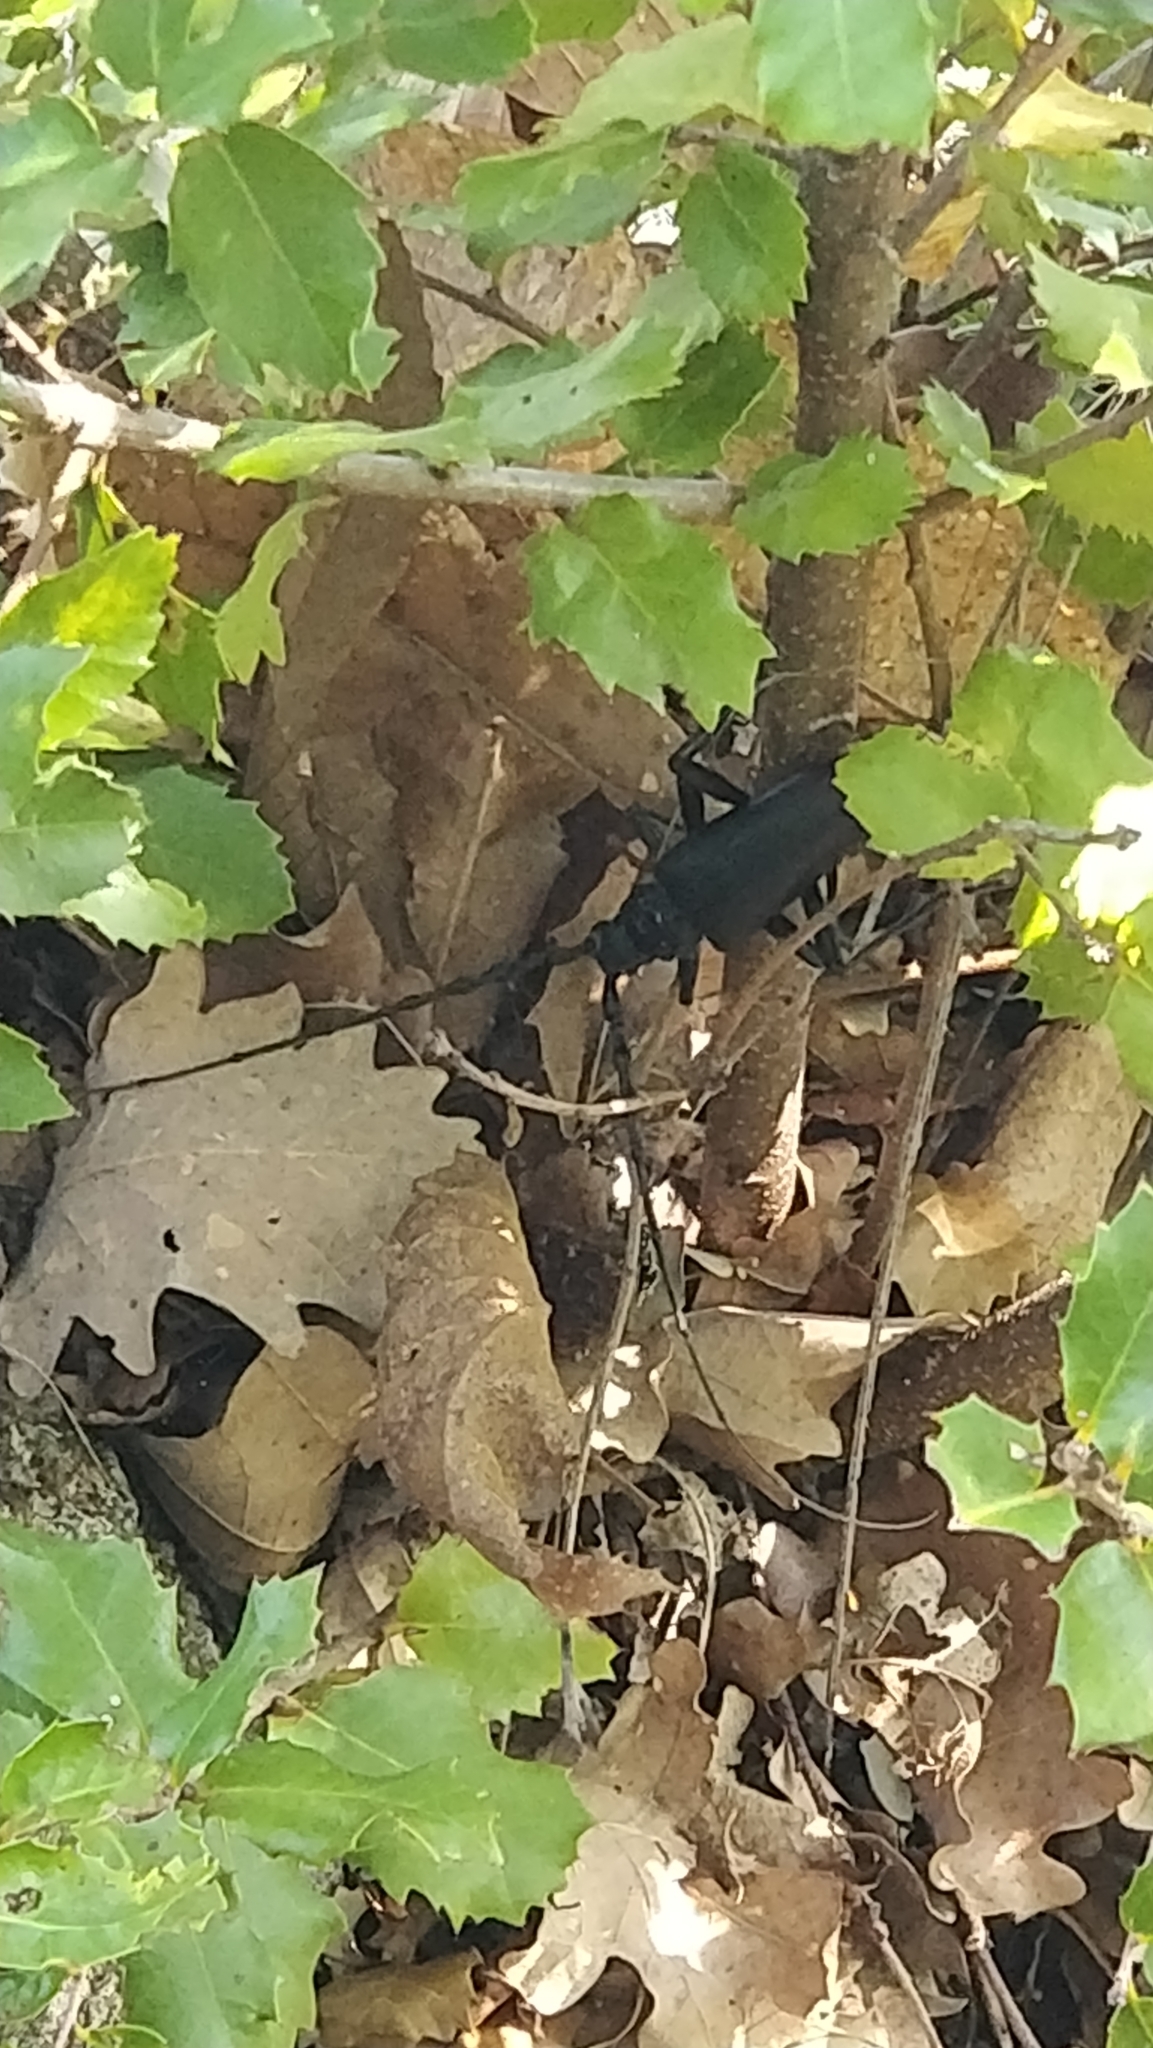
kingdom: Animalia
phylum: Arthropoda
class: Insecta
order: Coleoptera
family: Cerambycidae
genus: Cerambyx
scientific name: Cerambyx cerdo
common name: Cerambyx longicorn
